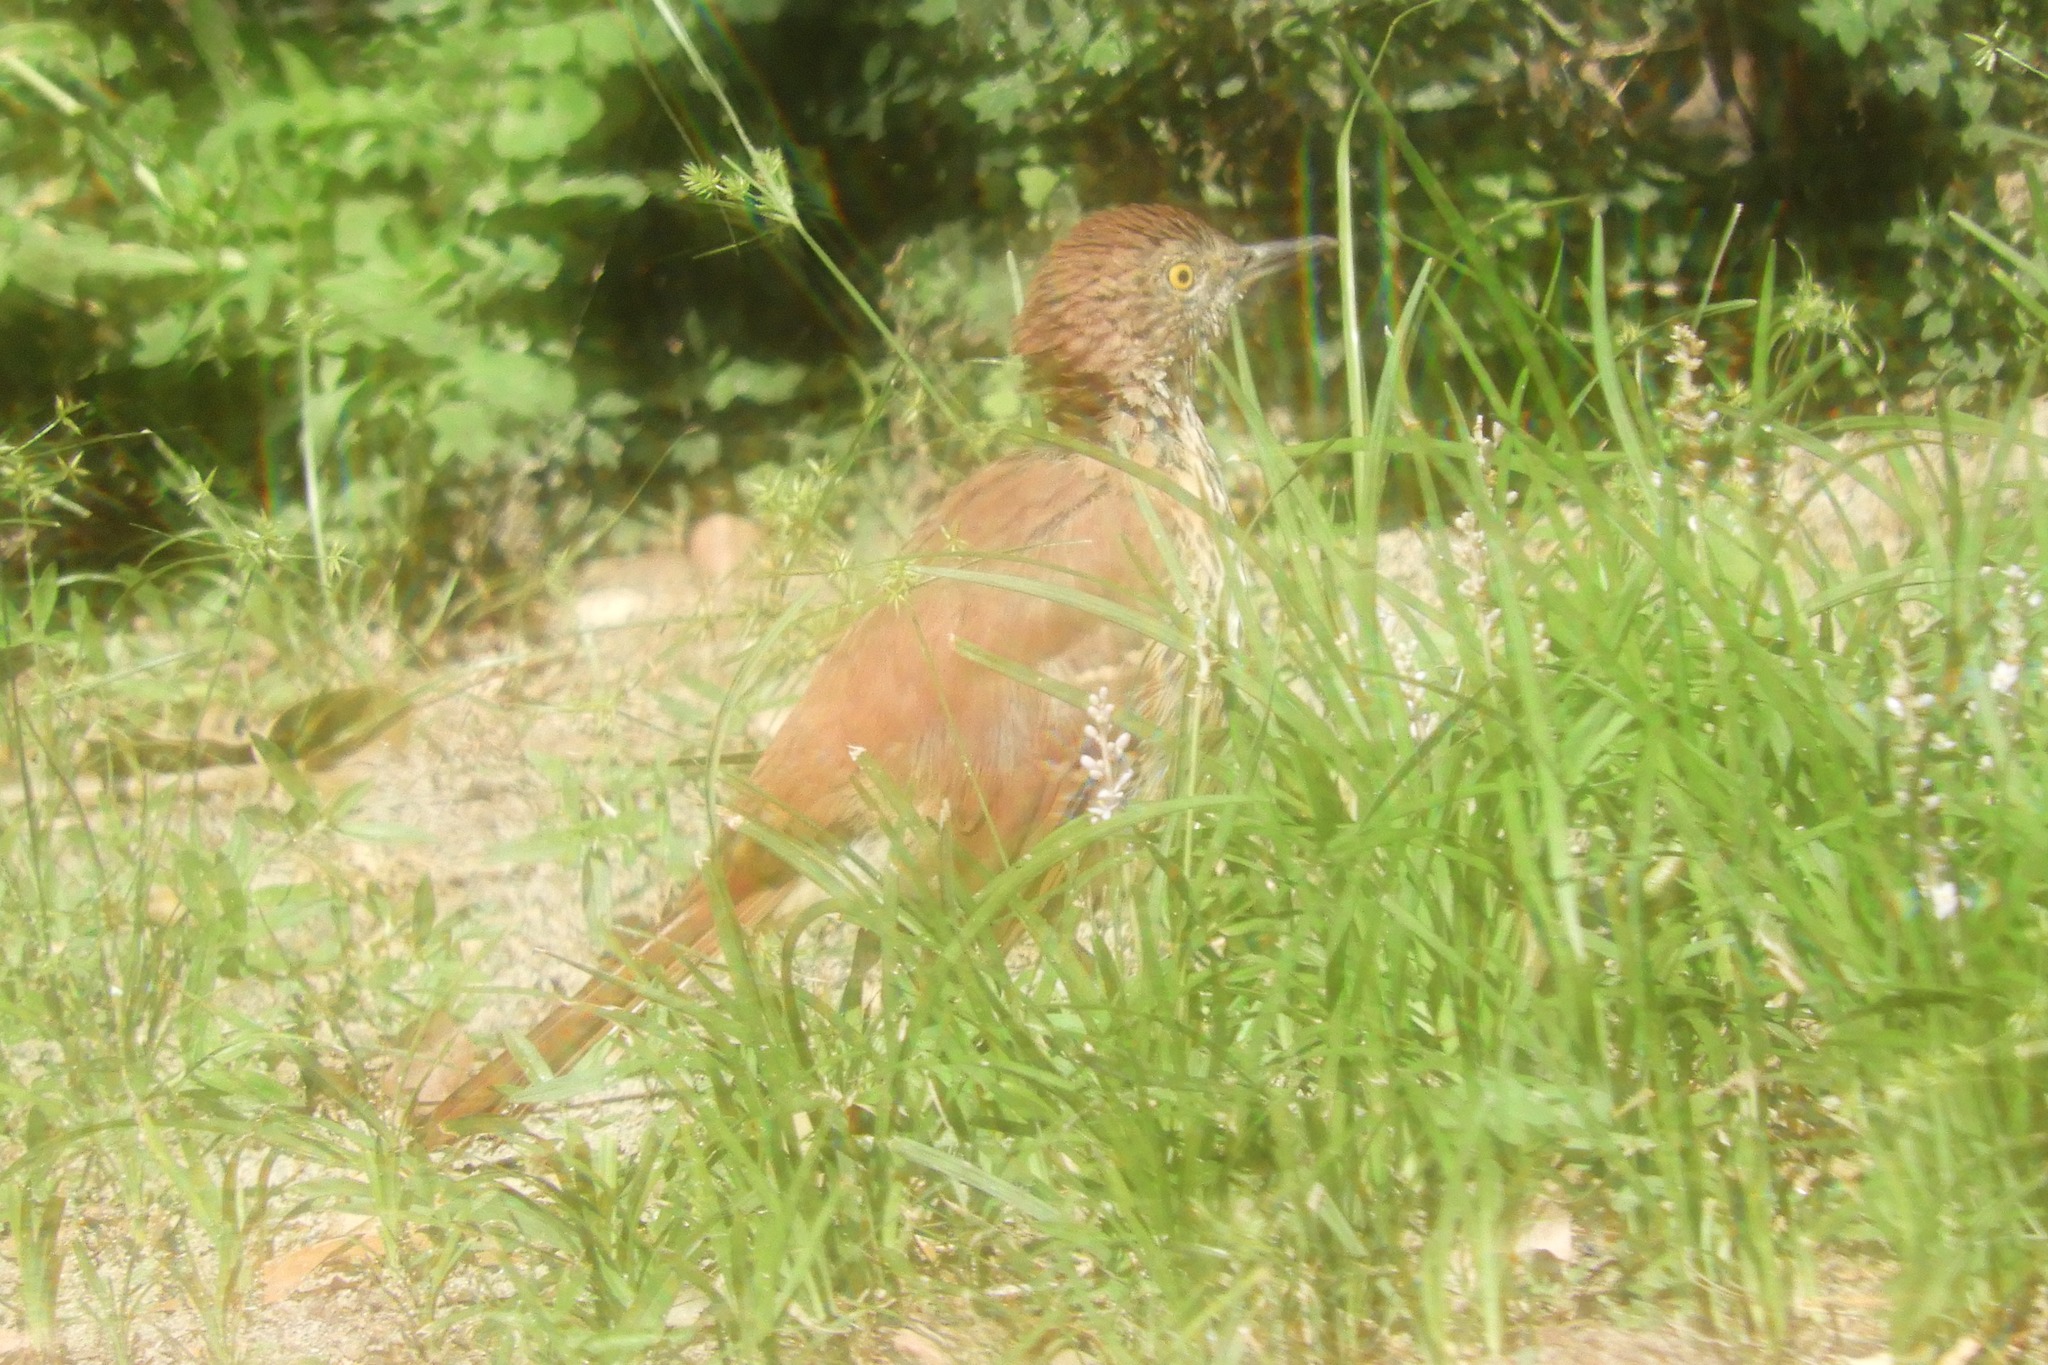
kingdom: Animalia
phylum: Chordata
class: Aves
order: Passeriformes
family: Mimidae
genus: Toxostoma
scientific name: Toxostoma rufum
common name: Brown thrasher
